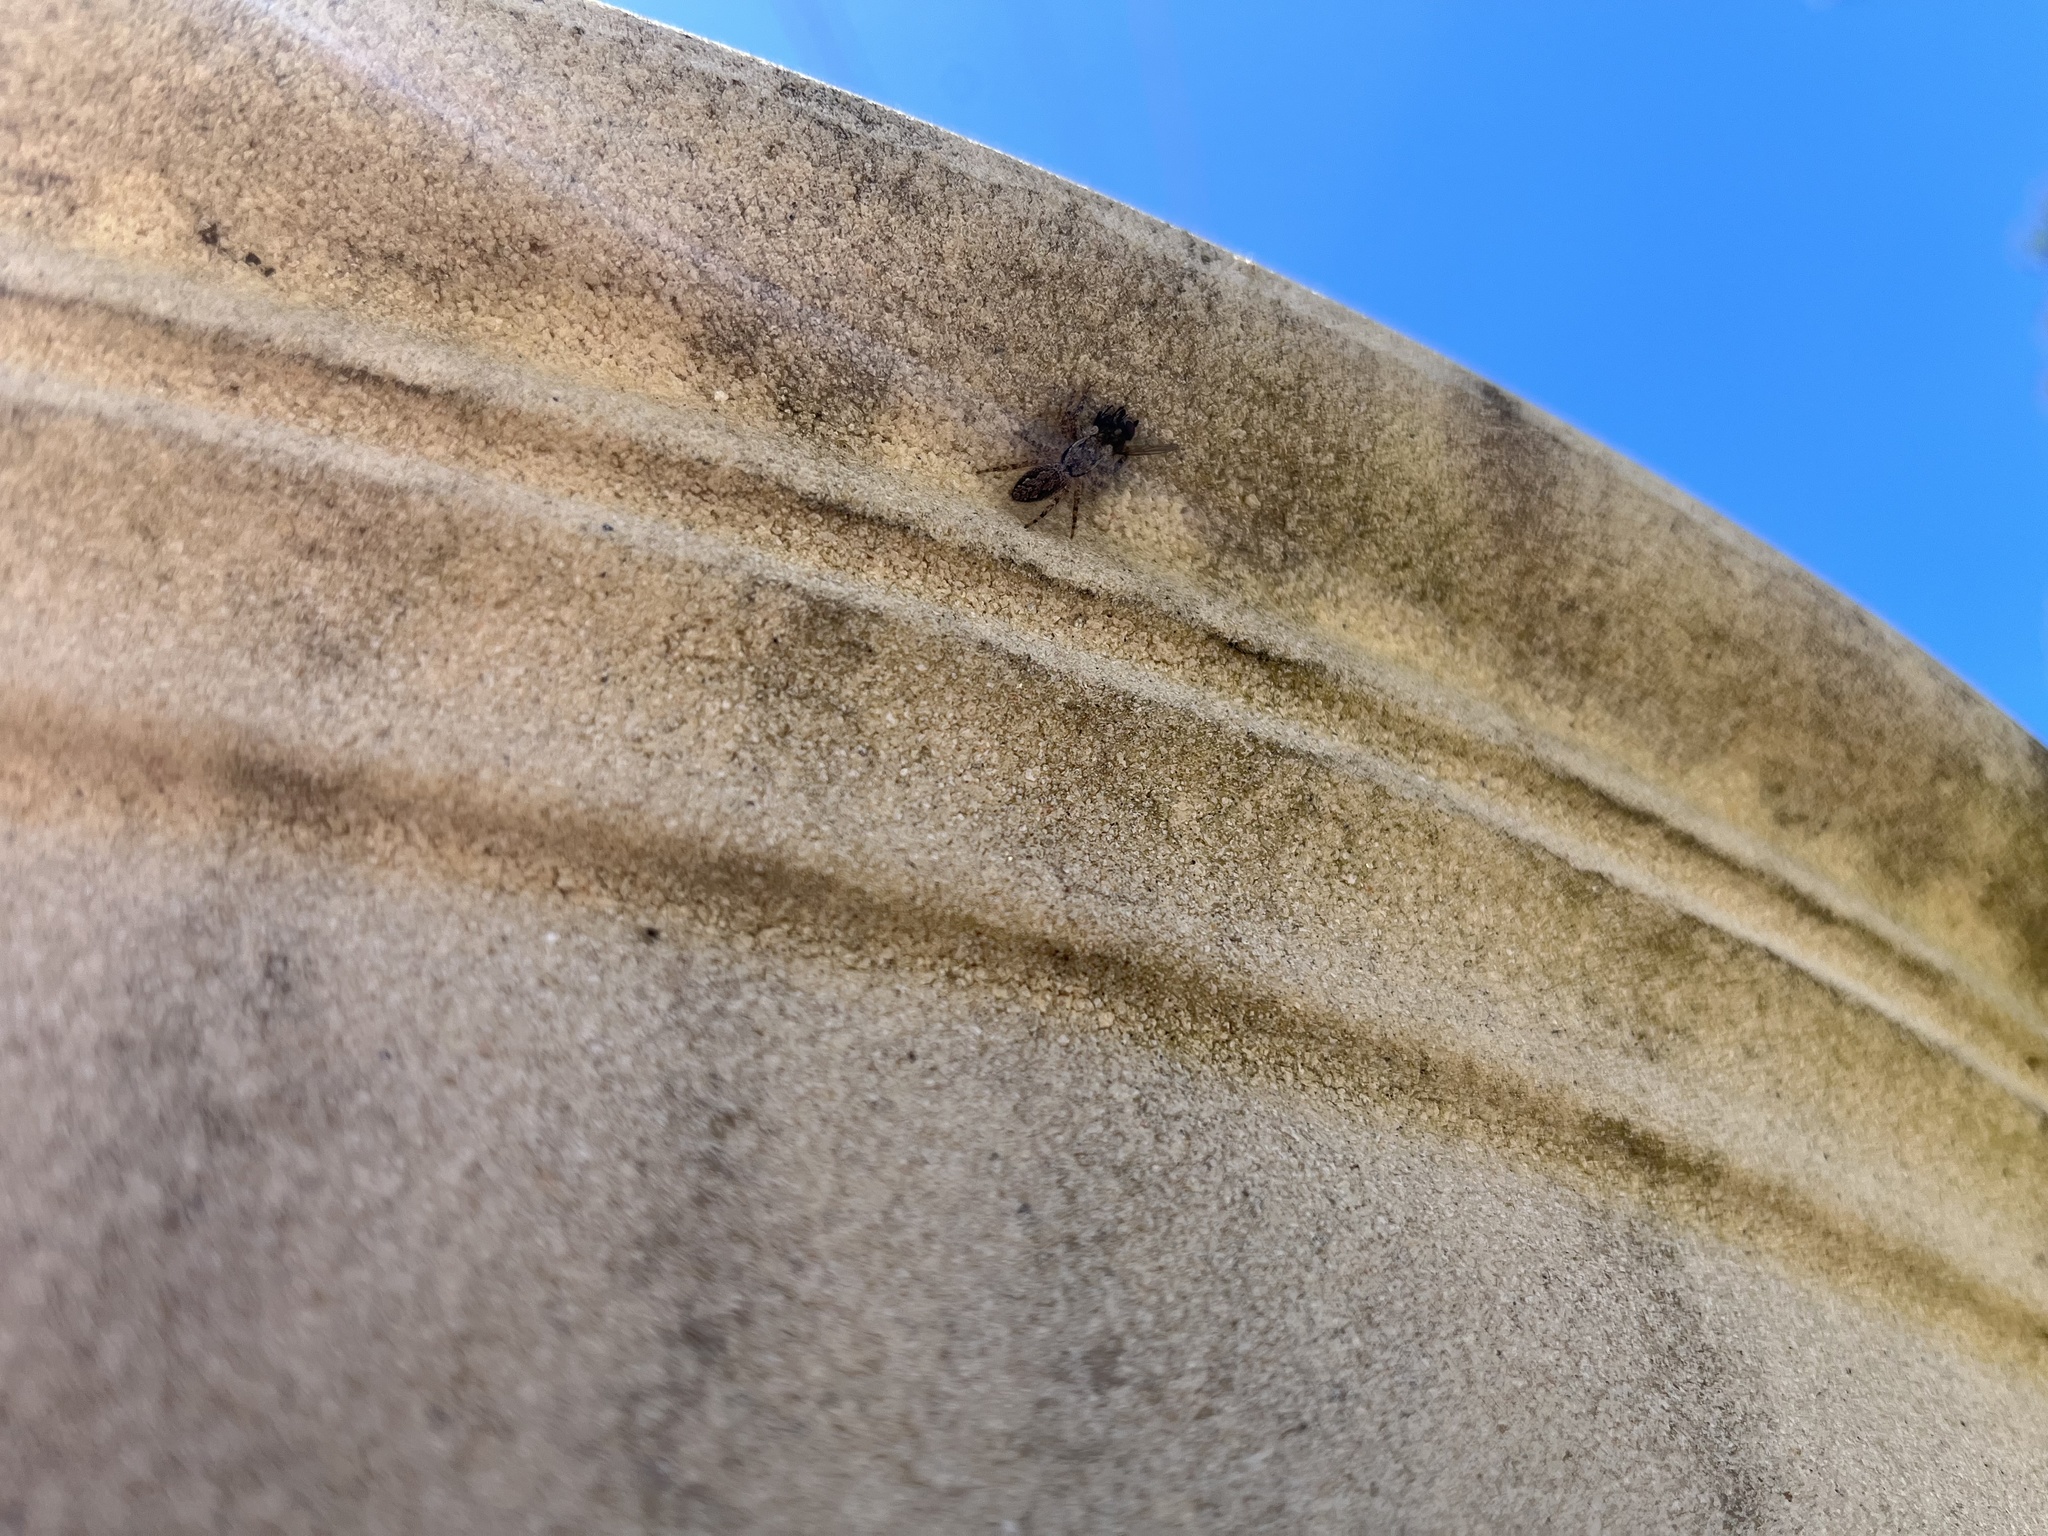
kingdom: Animalia
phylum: Arthropoda
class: Arachnida
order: Araneae
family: Salticidae
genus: Platycryptus
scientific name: Platycryptus undatus
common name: Tan jumping spider
